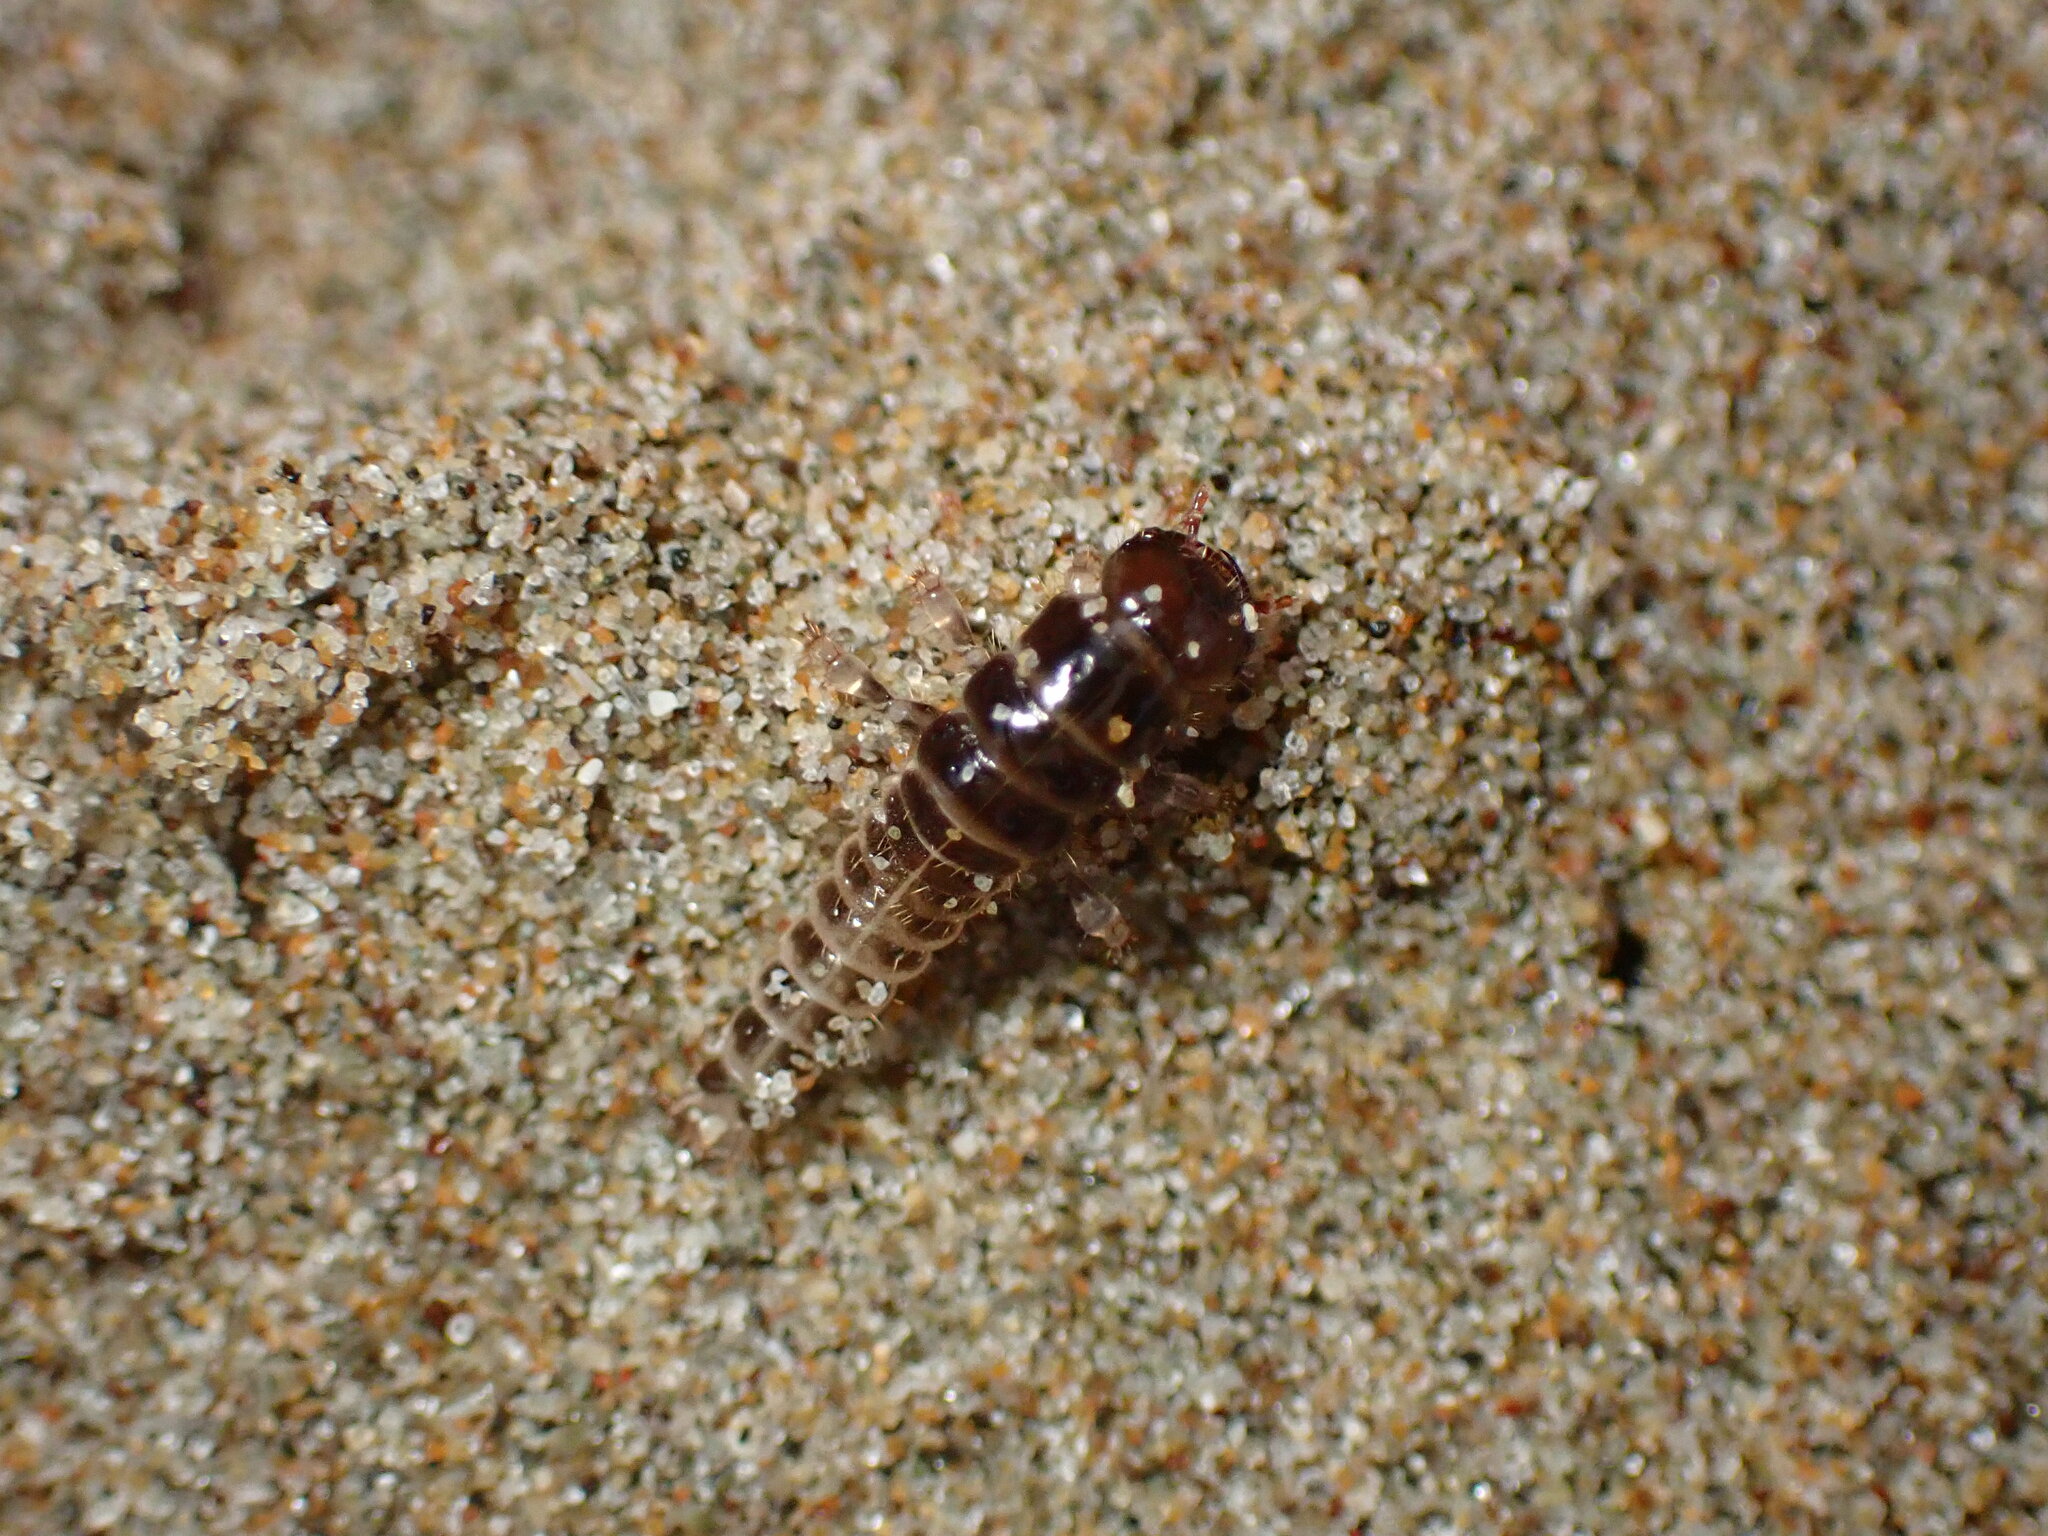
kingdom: Animalia
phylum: Arthropoda
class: Insecta
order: Coleoptera
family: Staphylinidae
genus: Thinopinus
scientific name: Thinopinus pictus
